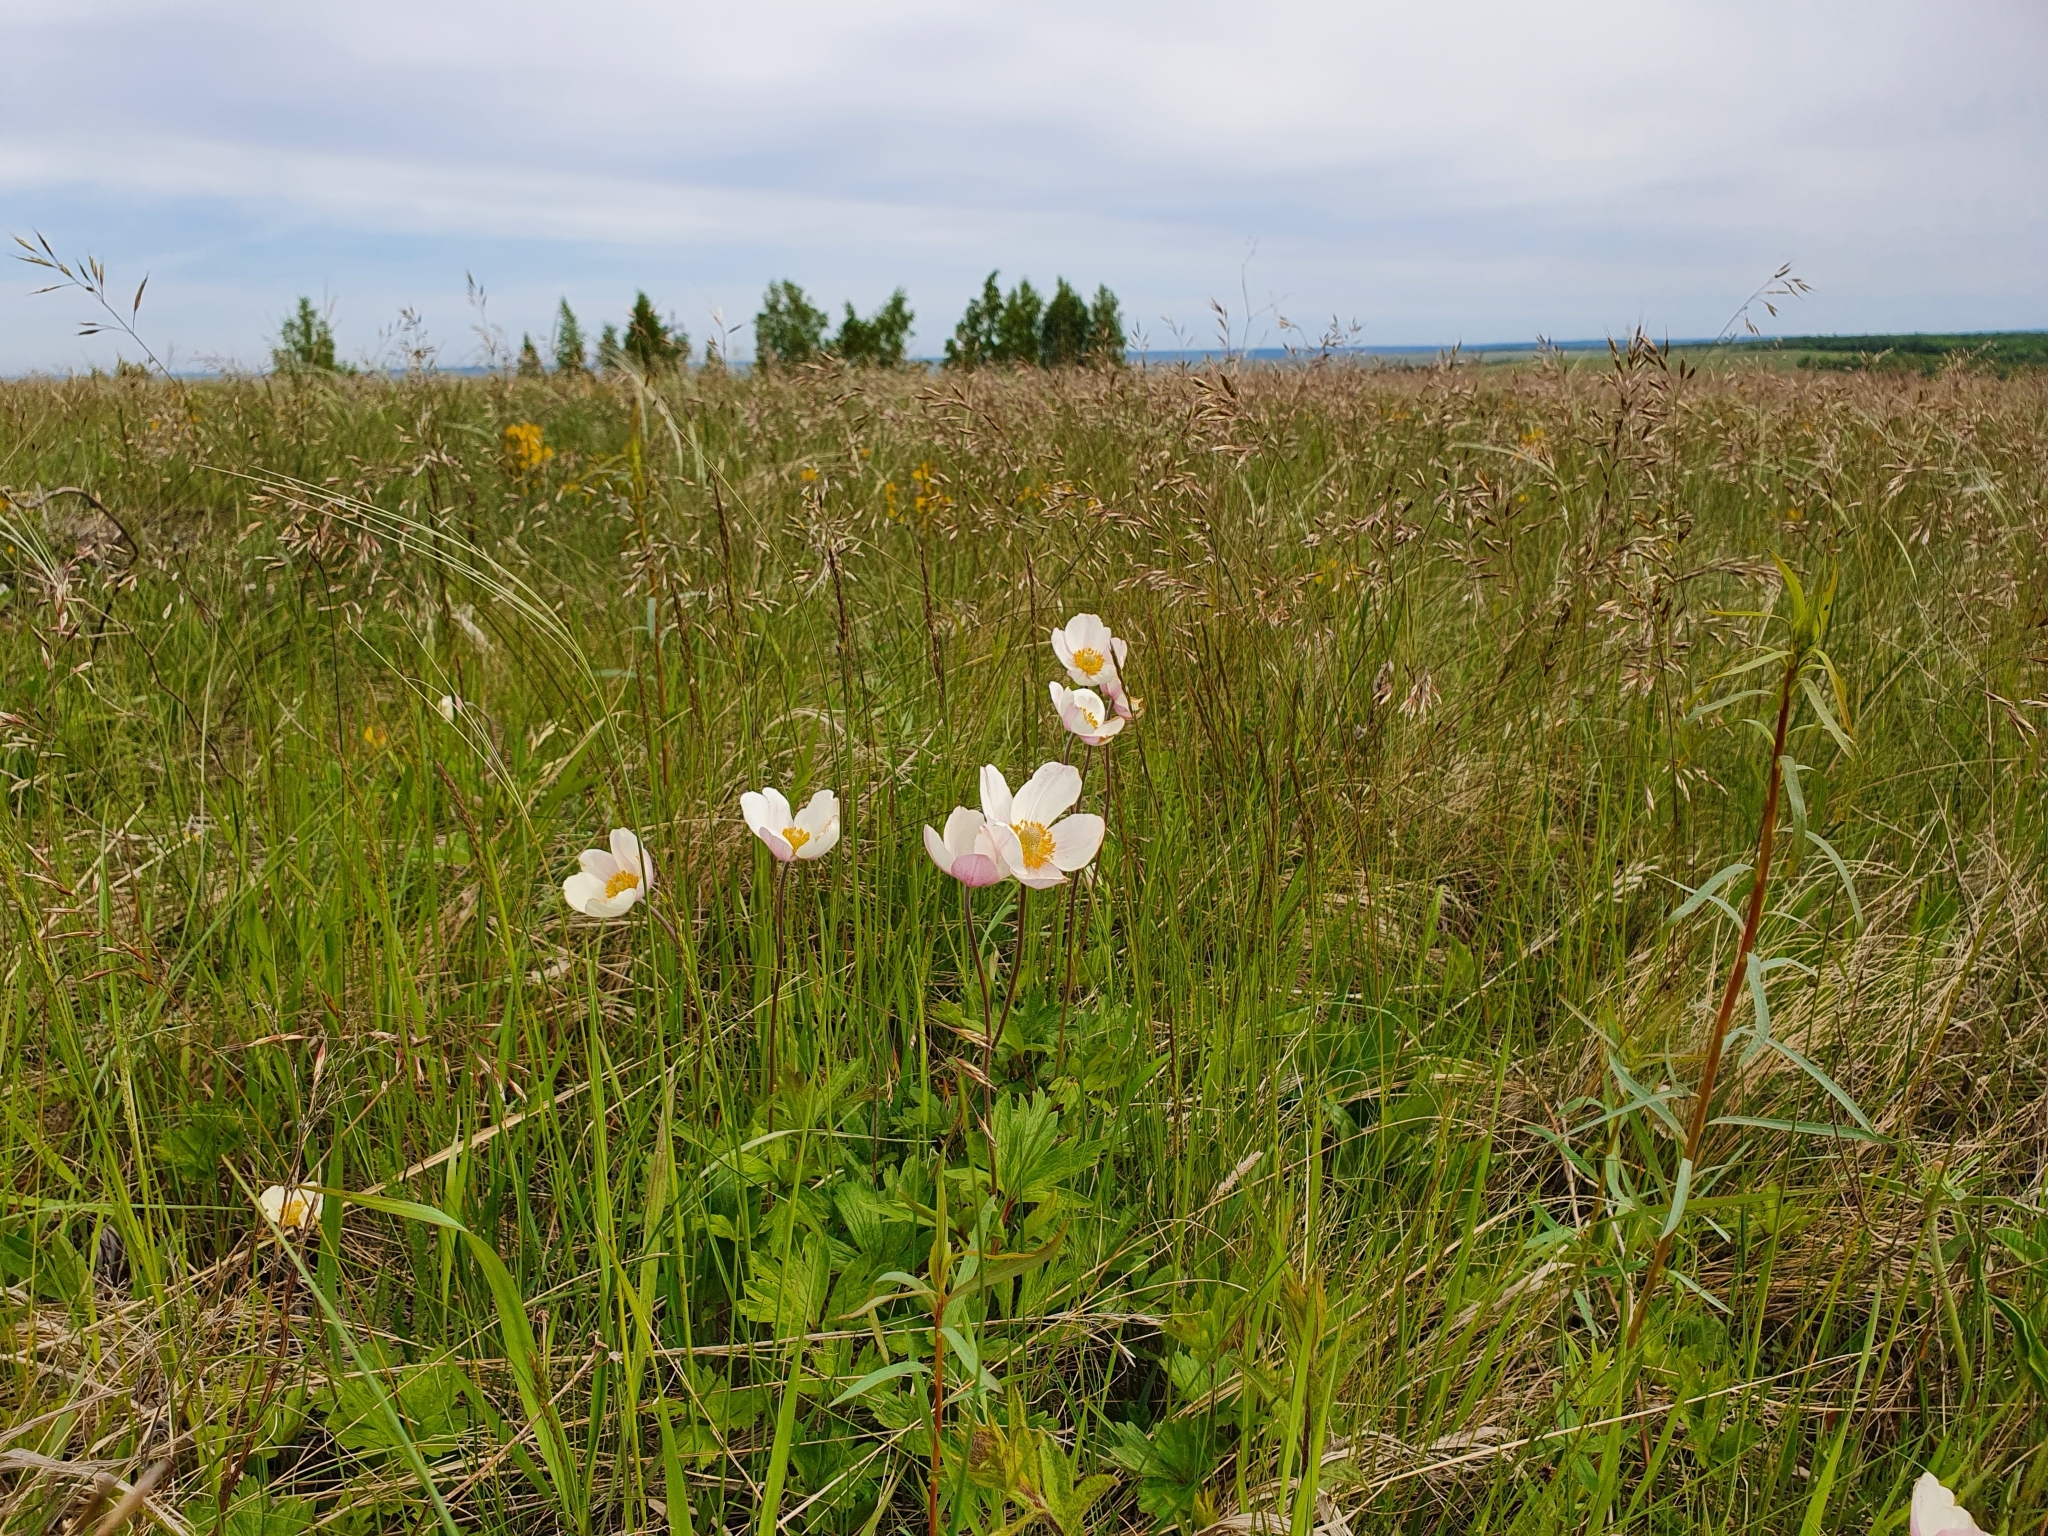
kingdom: Plantae
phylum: Tracheophyta
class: Magnoliopsida
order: Ranunculales
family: Ranunculaceae
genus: Anemone
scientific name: Anemone sylvestris
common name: Snowdrop anemone
